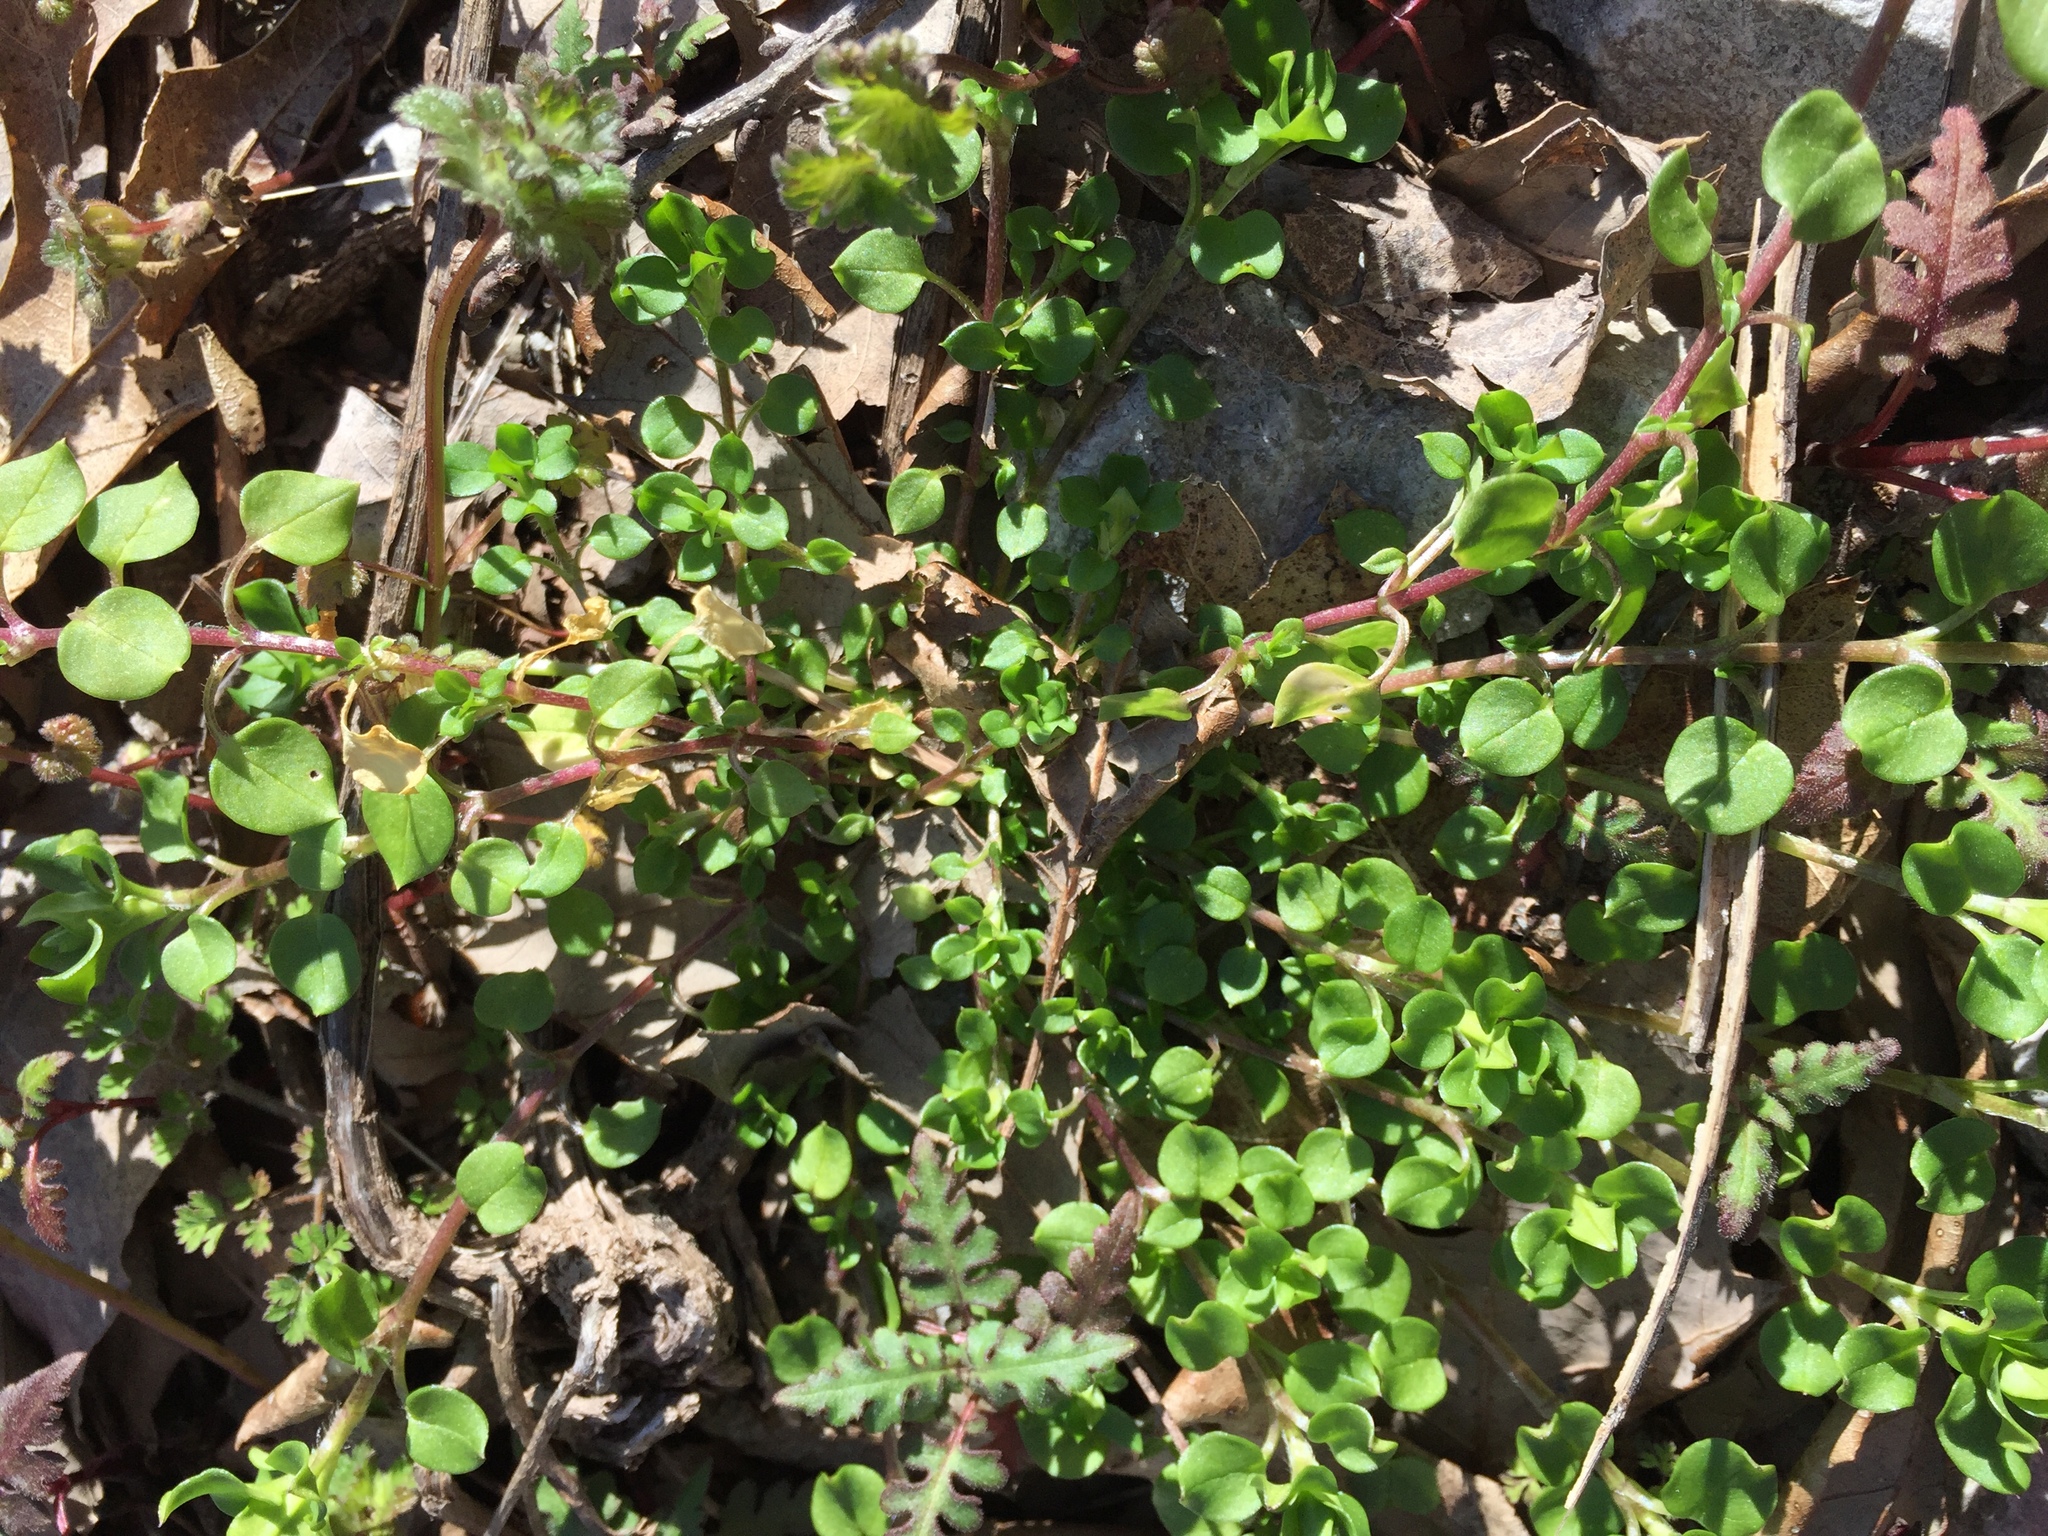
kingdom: Plantae
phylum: Tracheophyta
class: Magnoliopsida
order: Caryophyllales
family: Caryophyllaceae
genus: Stellaria
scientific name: Stellaria media
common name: Common chickweed
